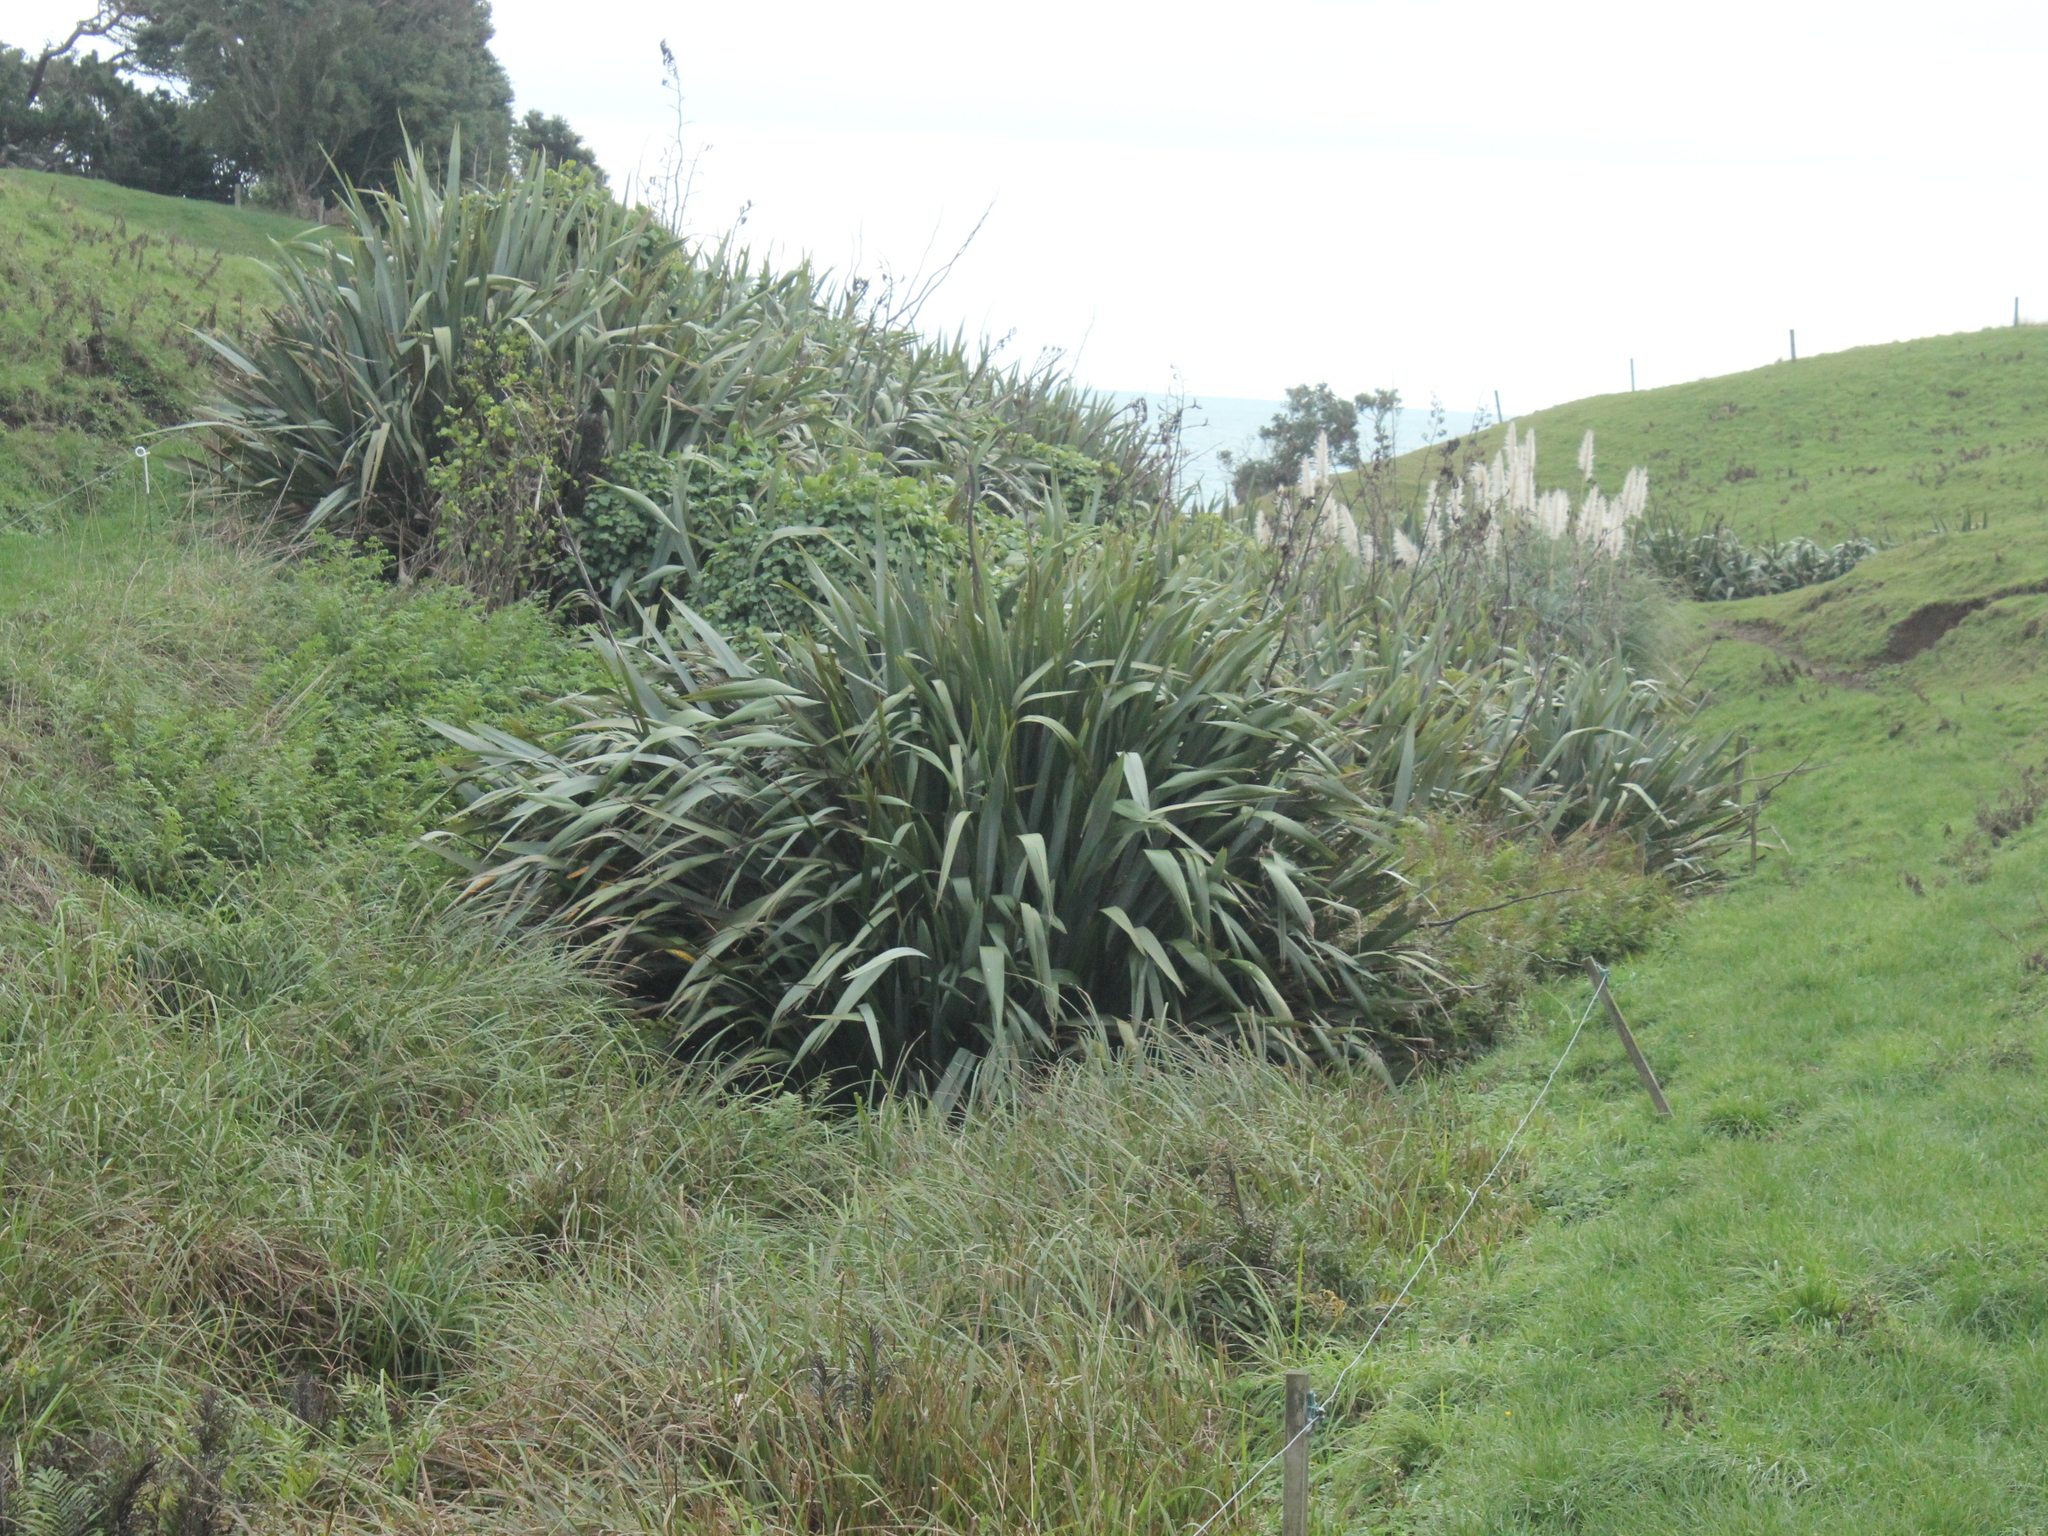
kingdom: Plantae
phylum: Tracheophyta
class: Liliopsida
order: Asparagales
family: Asphodelaceae
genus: Phormium
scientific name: Phormium tenax
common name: New zealand flax
